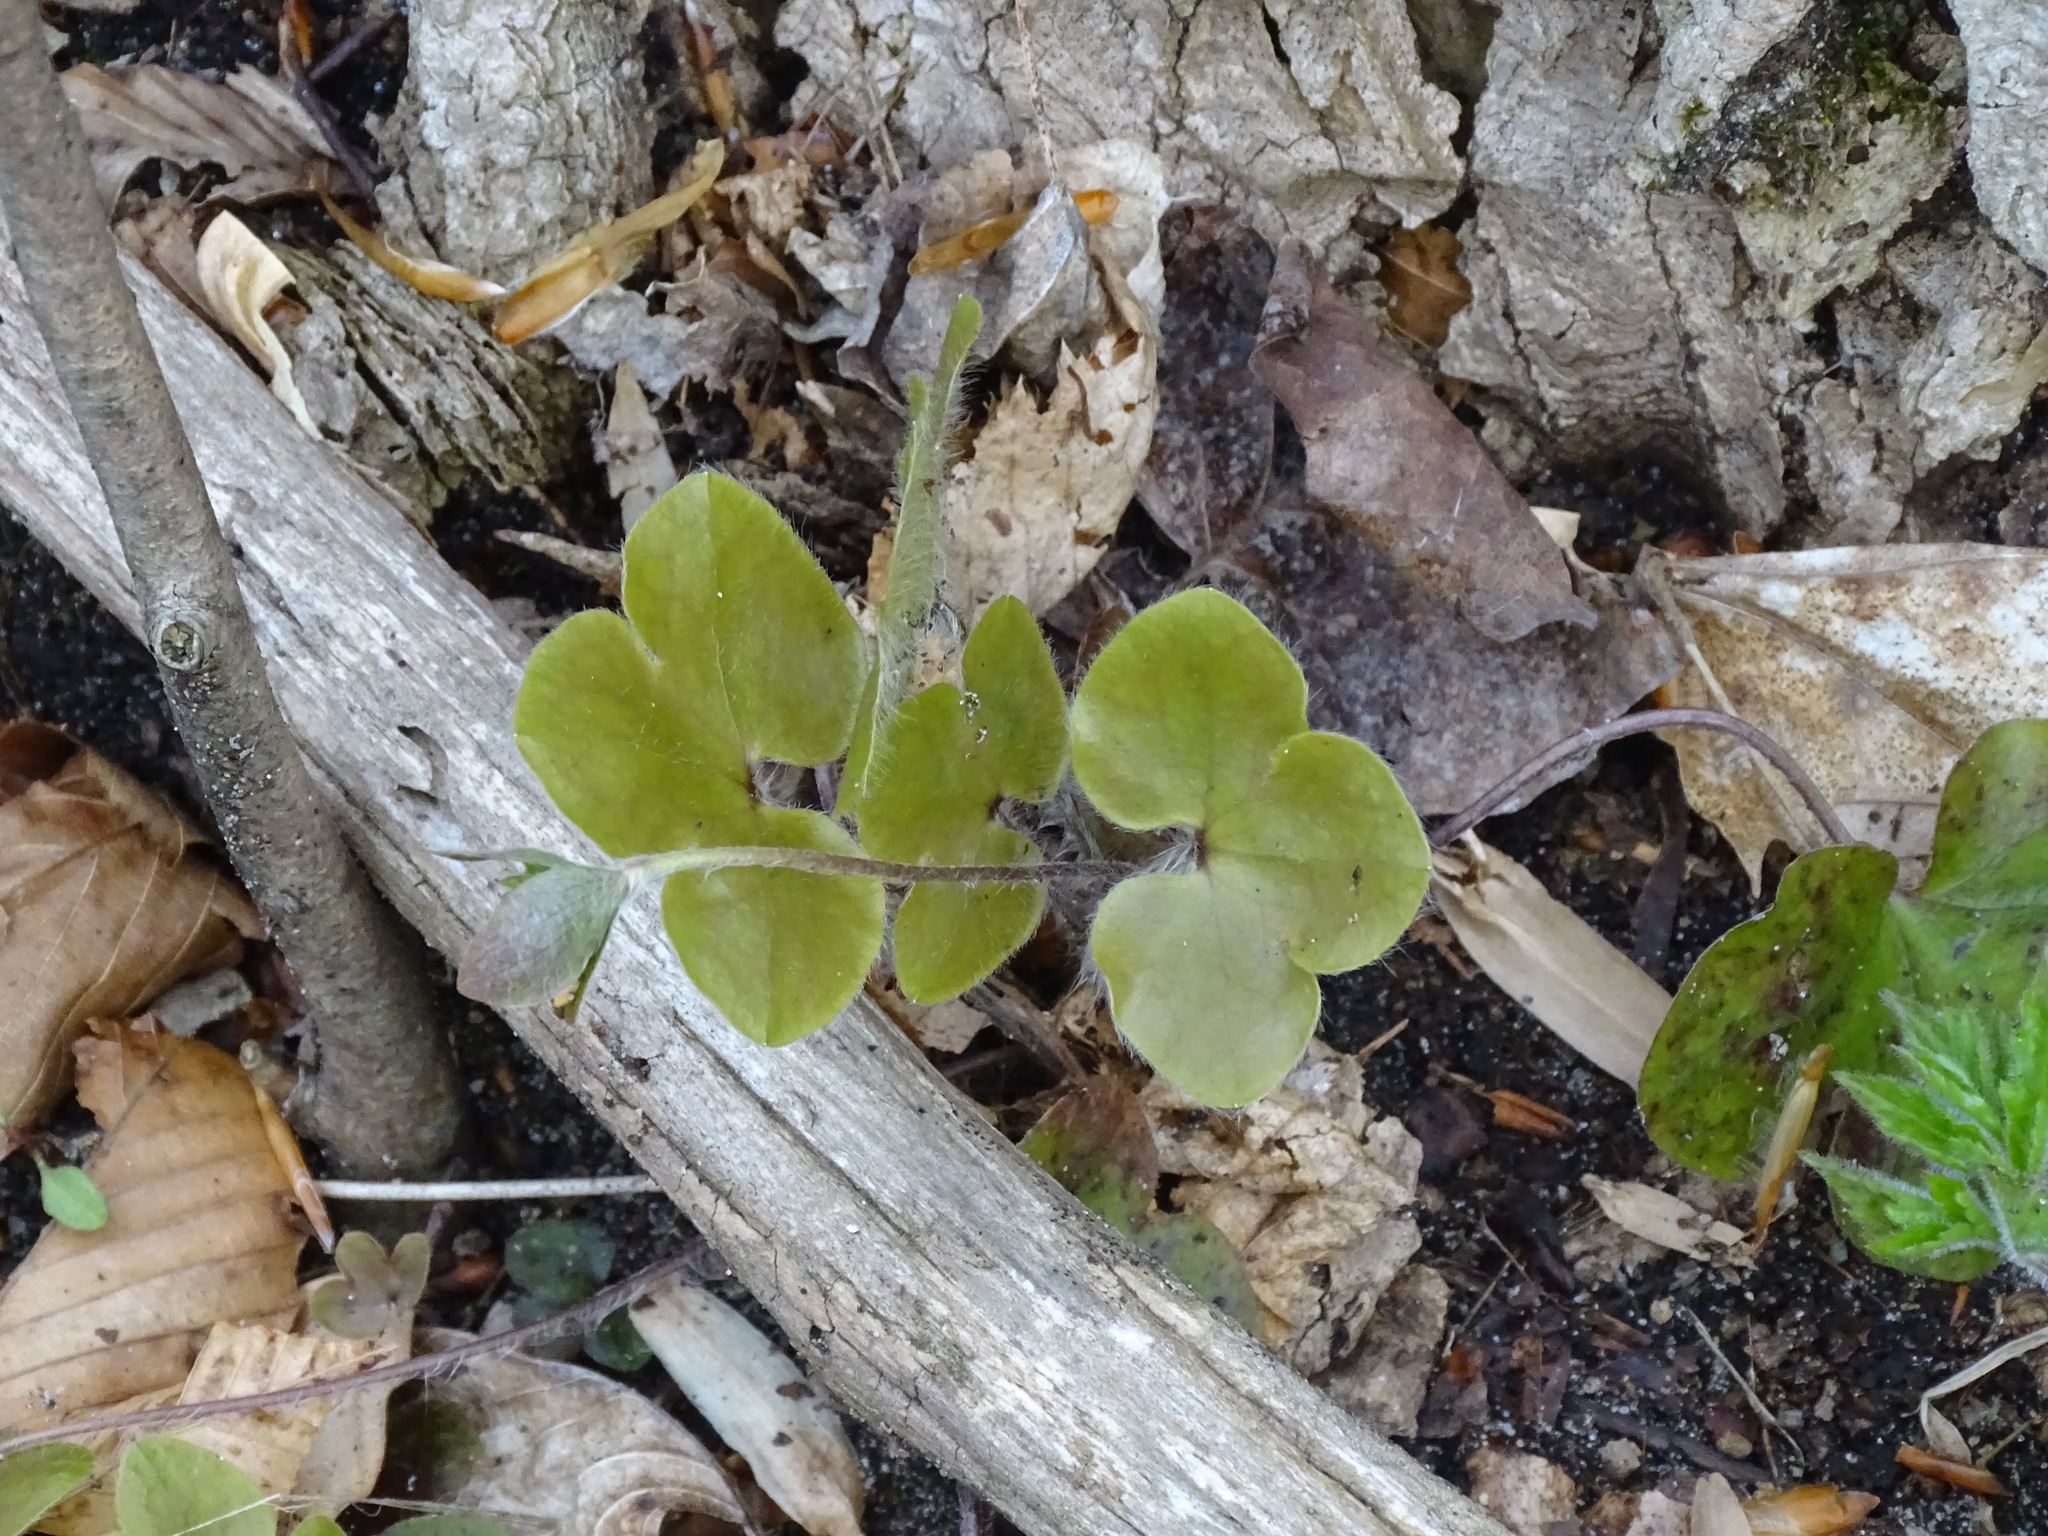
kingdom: Plantae
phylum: Tracheophyta
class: Magnoliopsida
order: Ranunculales
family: Ranunculaceae
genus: Hepatica
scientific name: Hepatica americana
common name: American hepatica
